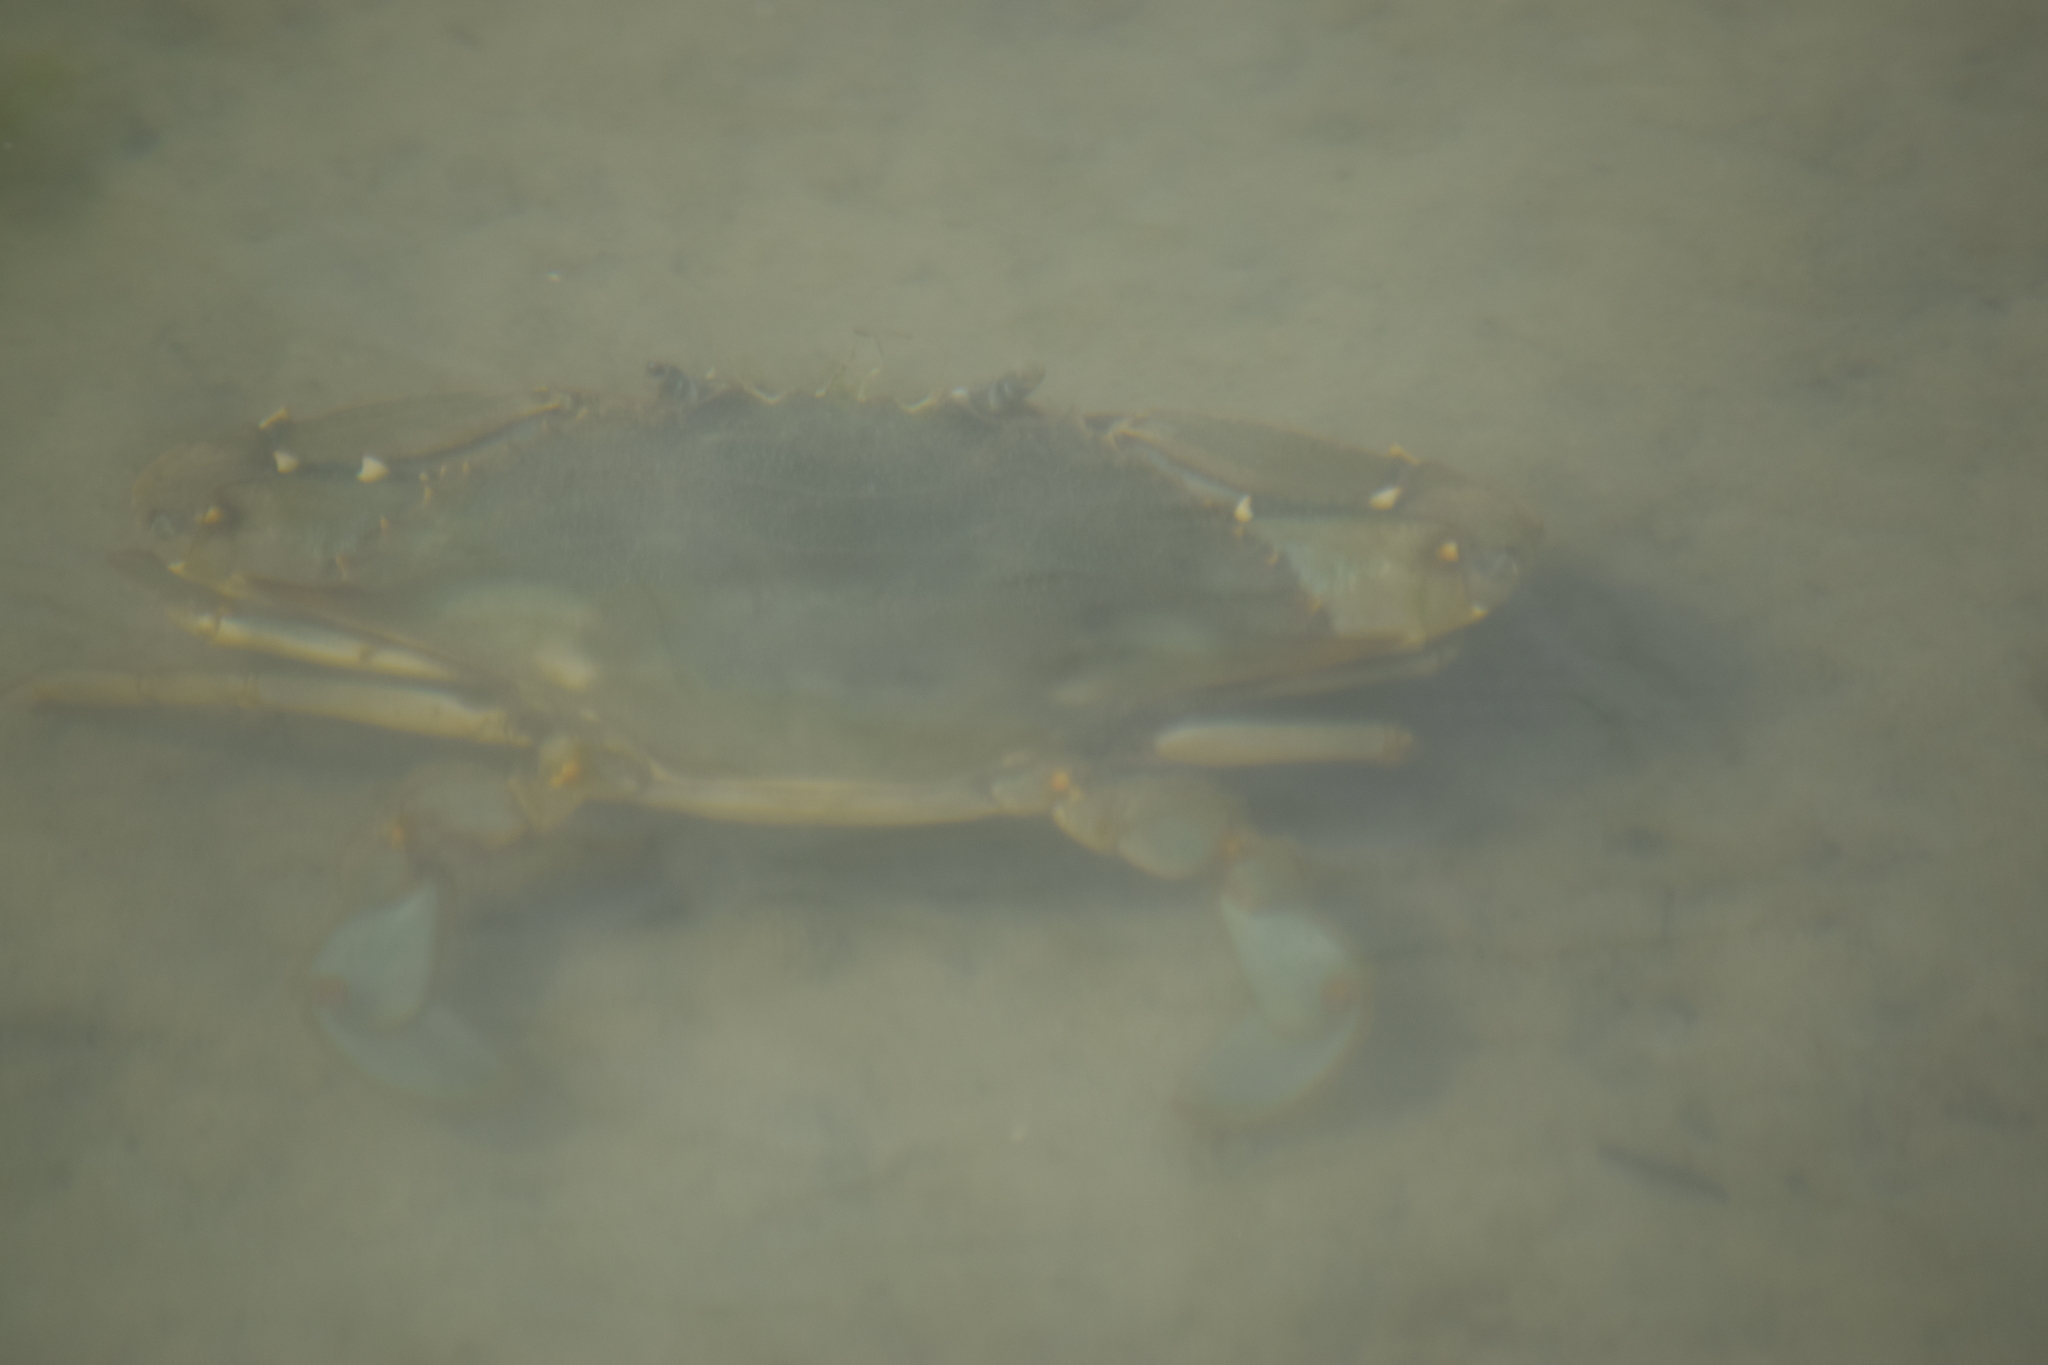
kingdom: Animalia
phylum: Arthropoda
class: Malacostraca
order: Decapoda
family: Portunidae
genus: Callinectes
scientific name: Callinectes sapidus
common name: Blue crab
